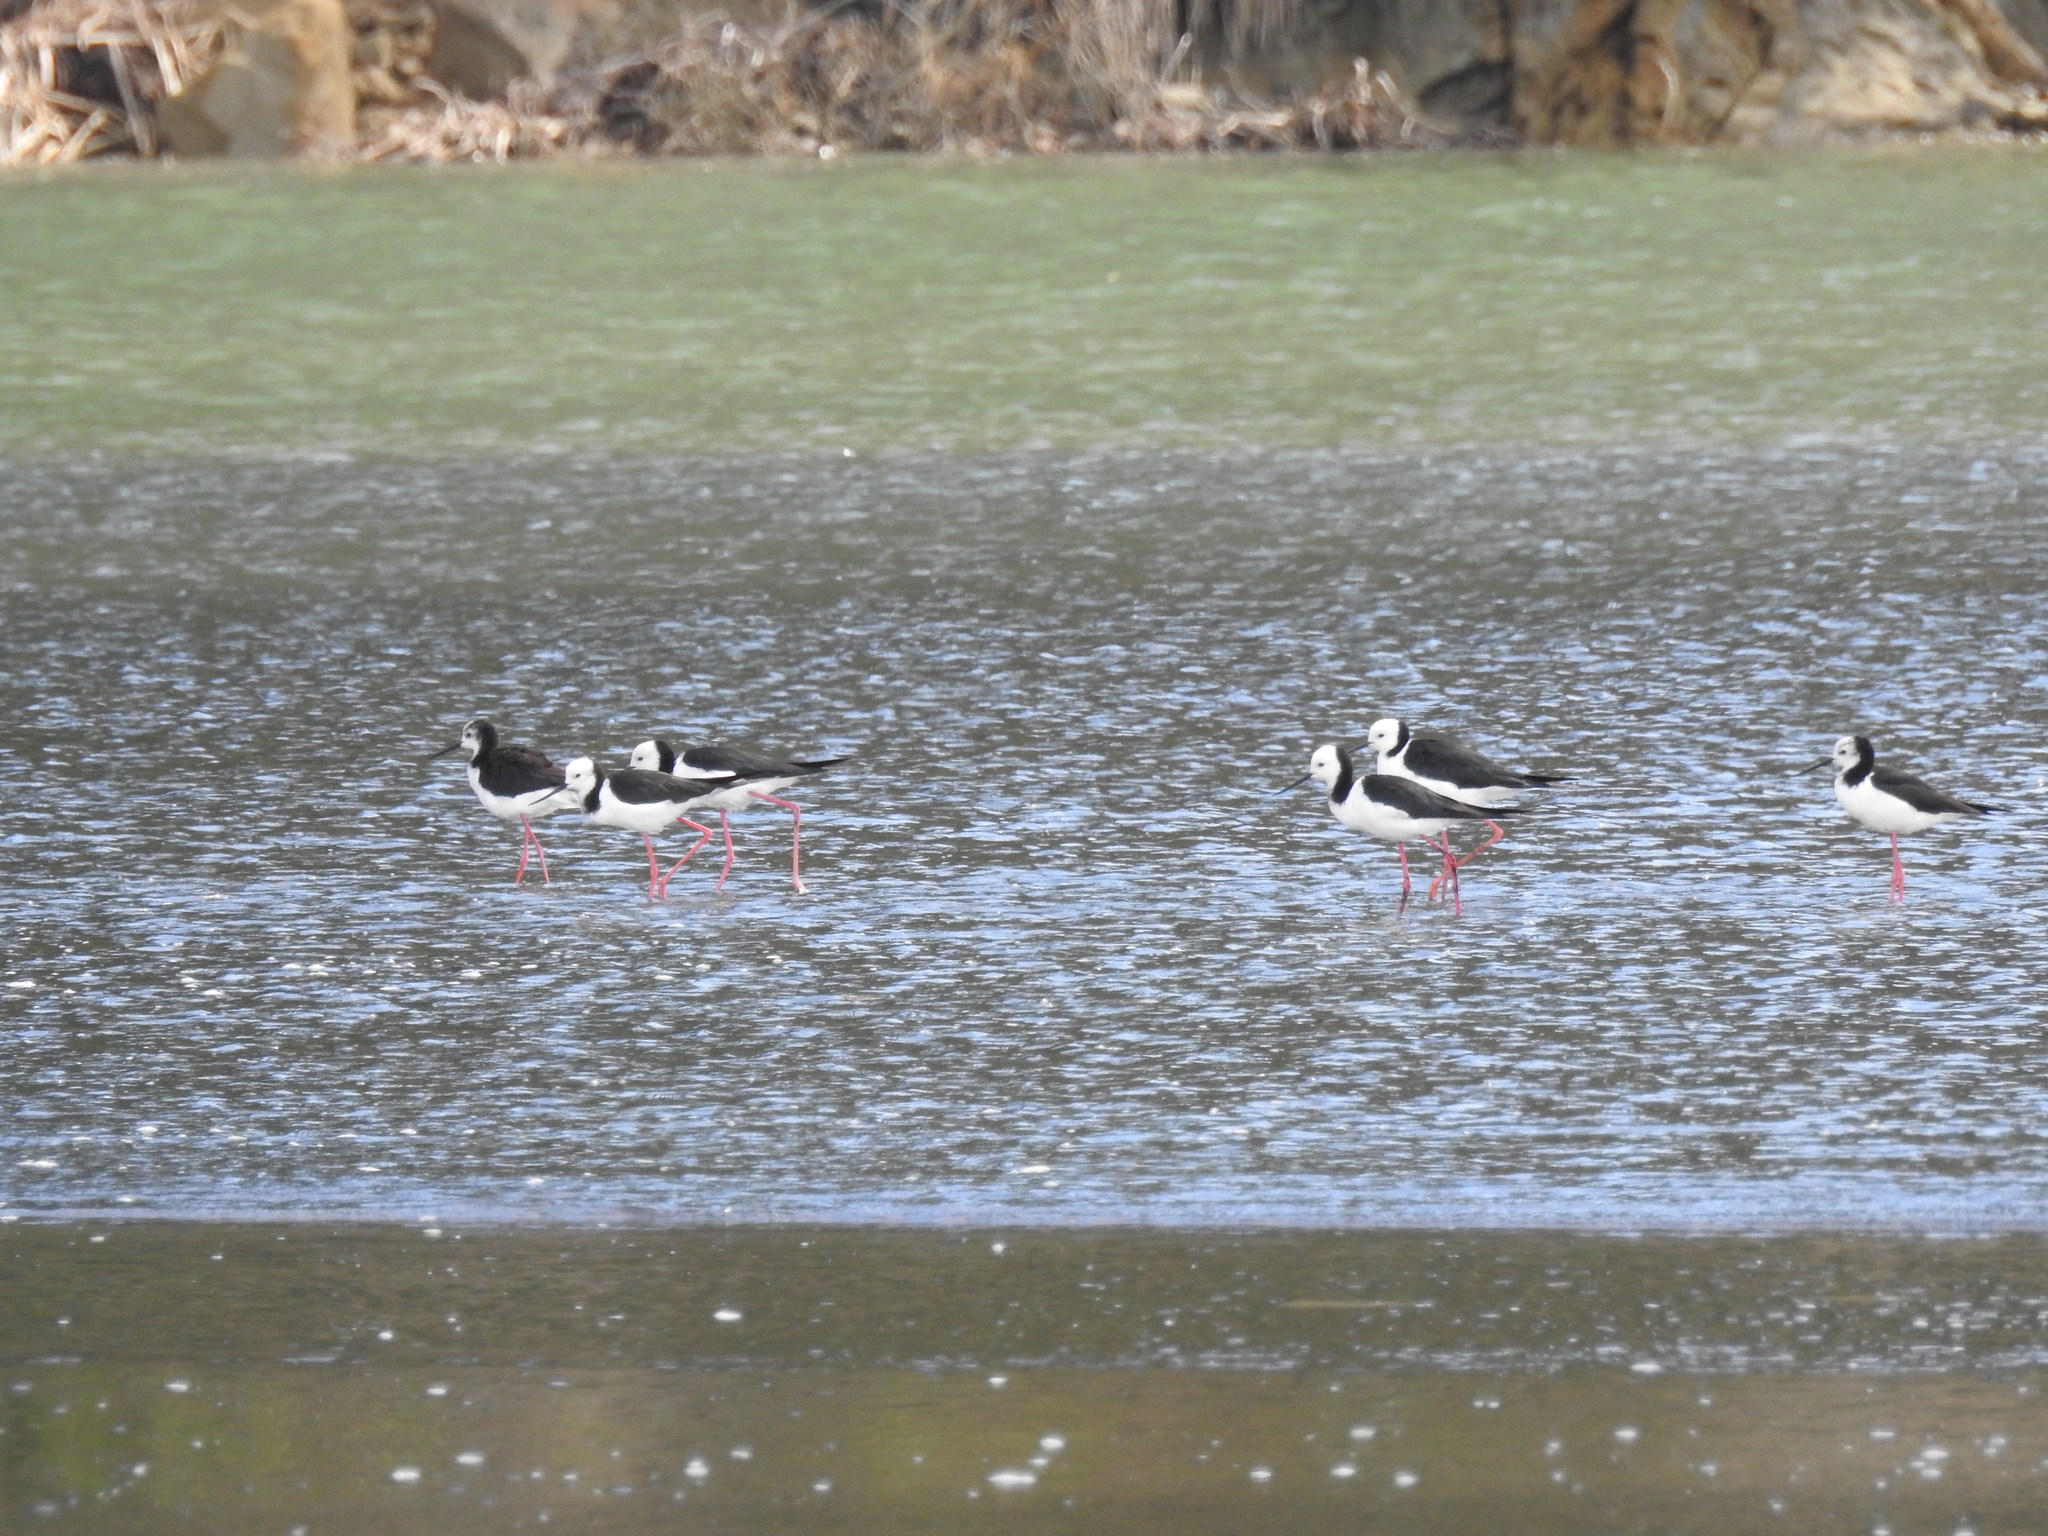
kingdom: Animalia
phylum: Chordata
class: Aves
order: Charadriiformes
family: Recurvirostridae
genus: Himantopus
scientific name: Himantopus leucocephalus
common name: White-headed stilt
